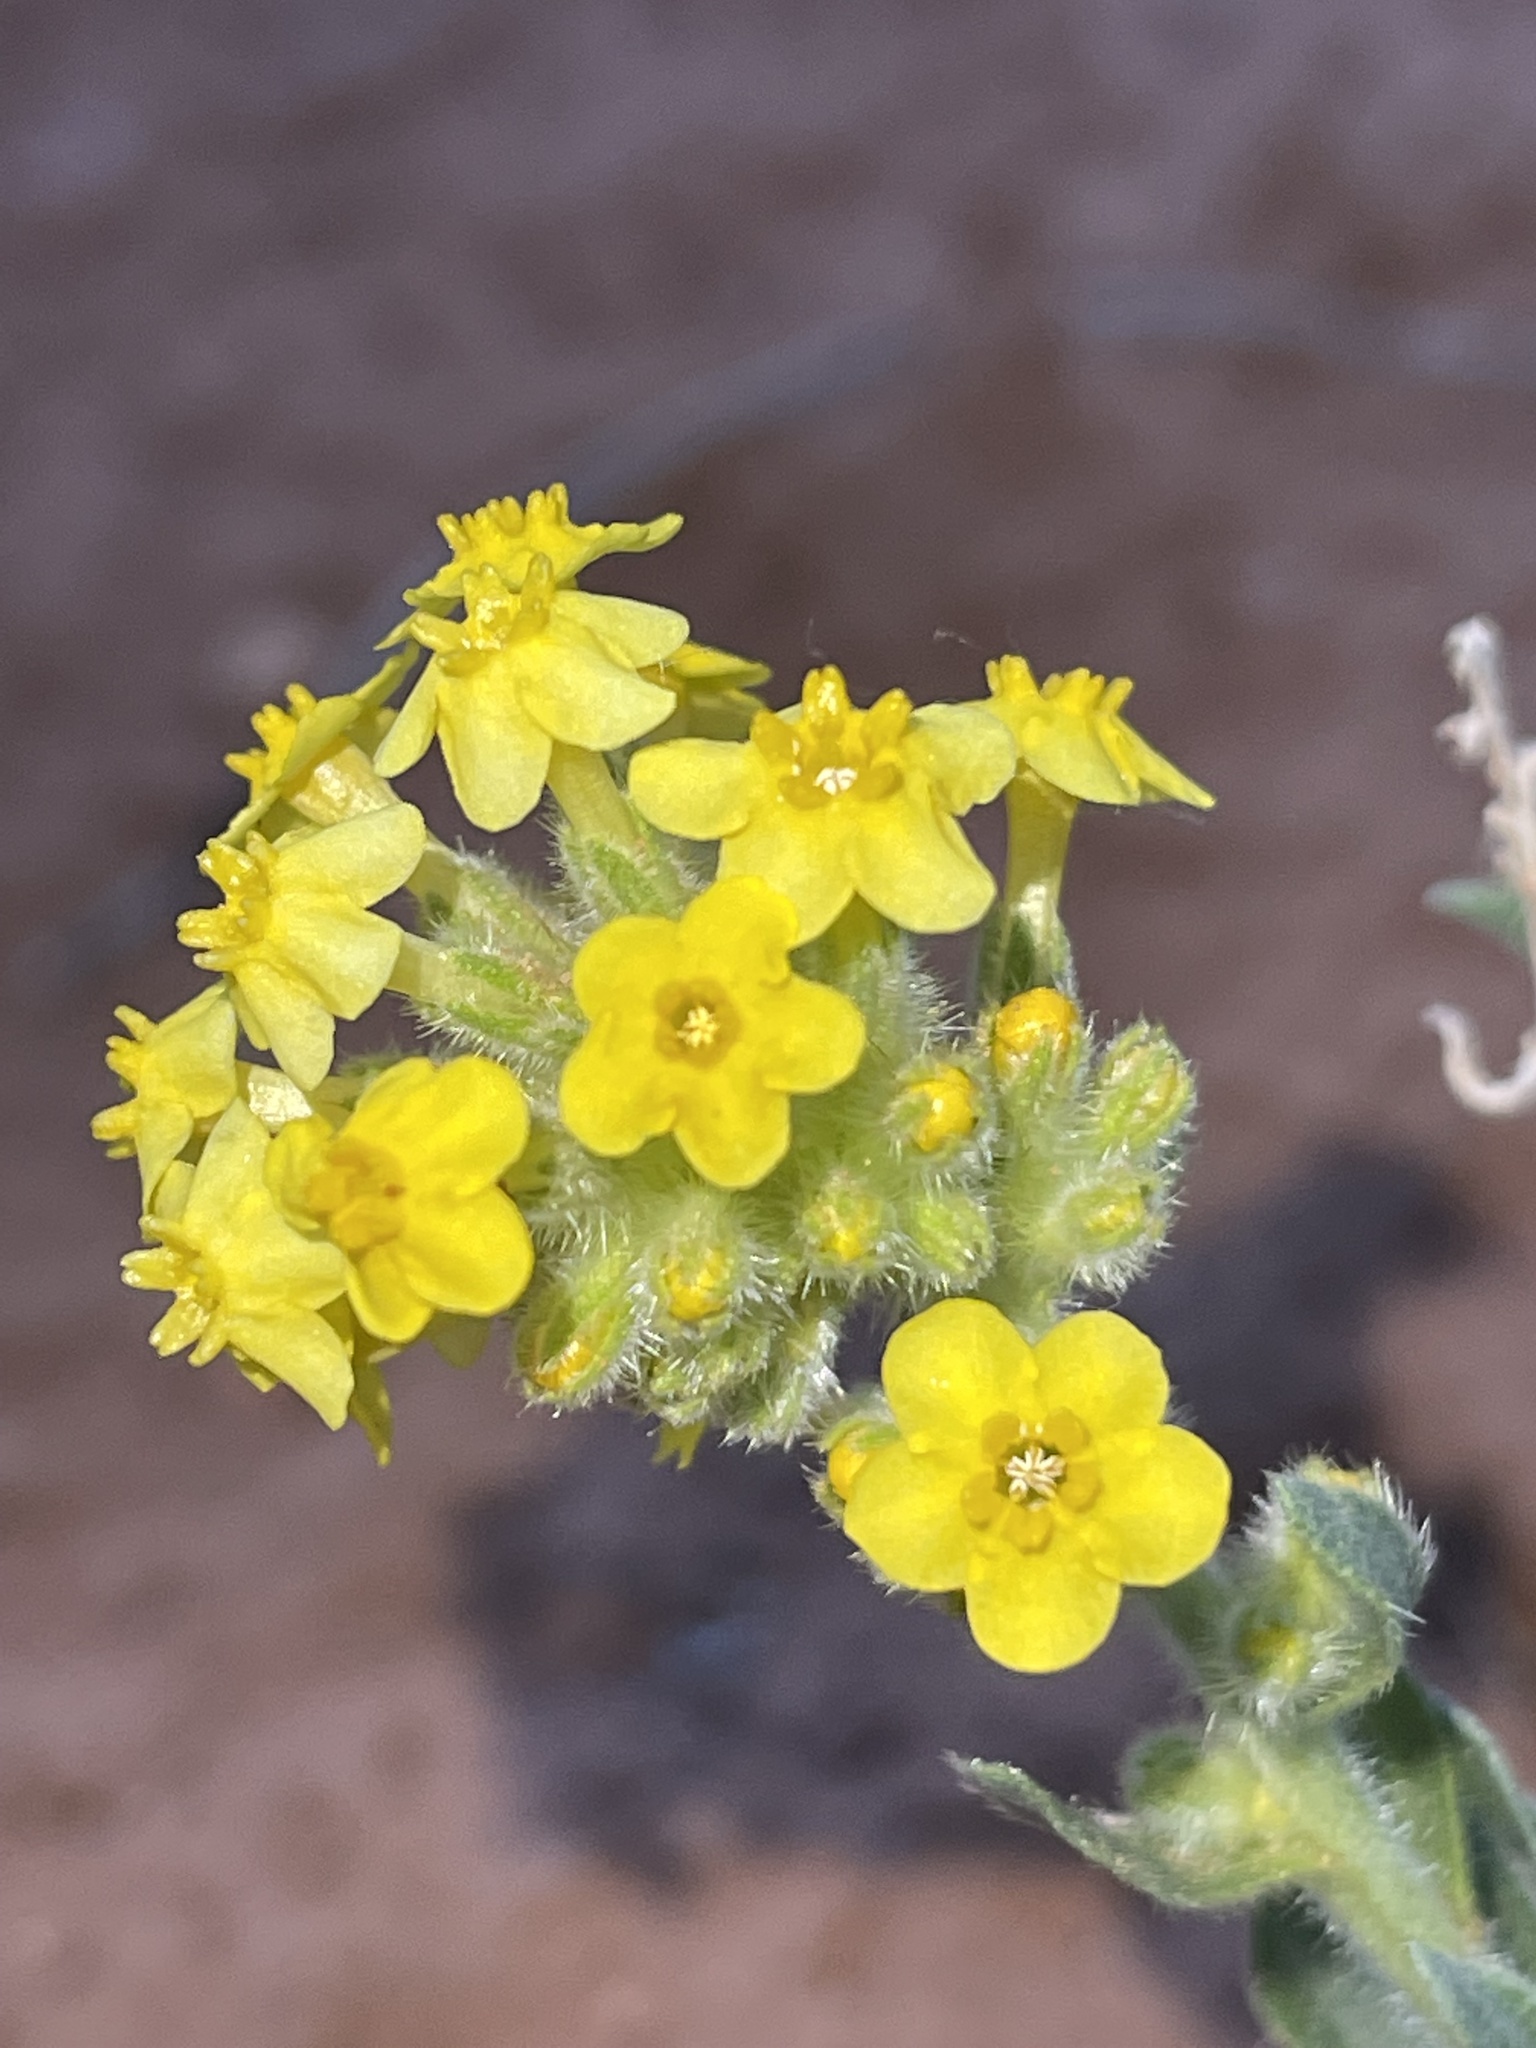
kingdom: Plantae
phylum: Tracheophyta
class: Magnoliopsida
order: Boraginales
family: Boraginaceae
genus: Oreocarya
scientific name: Oreocarya flava
